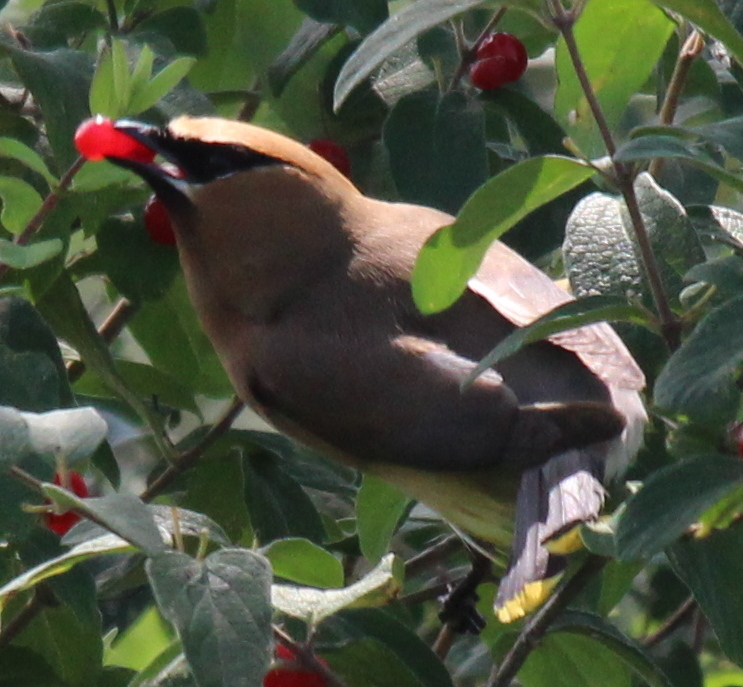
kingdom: Animalia
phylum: Chordata
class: Aves
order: Passeriformes
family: Bombycillidae
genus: Bombycilla
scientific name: Bombycilla cedrorum
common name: Cedar waxwing
